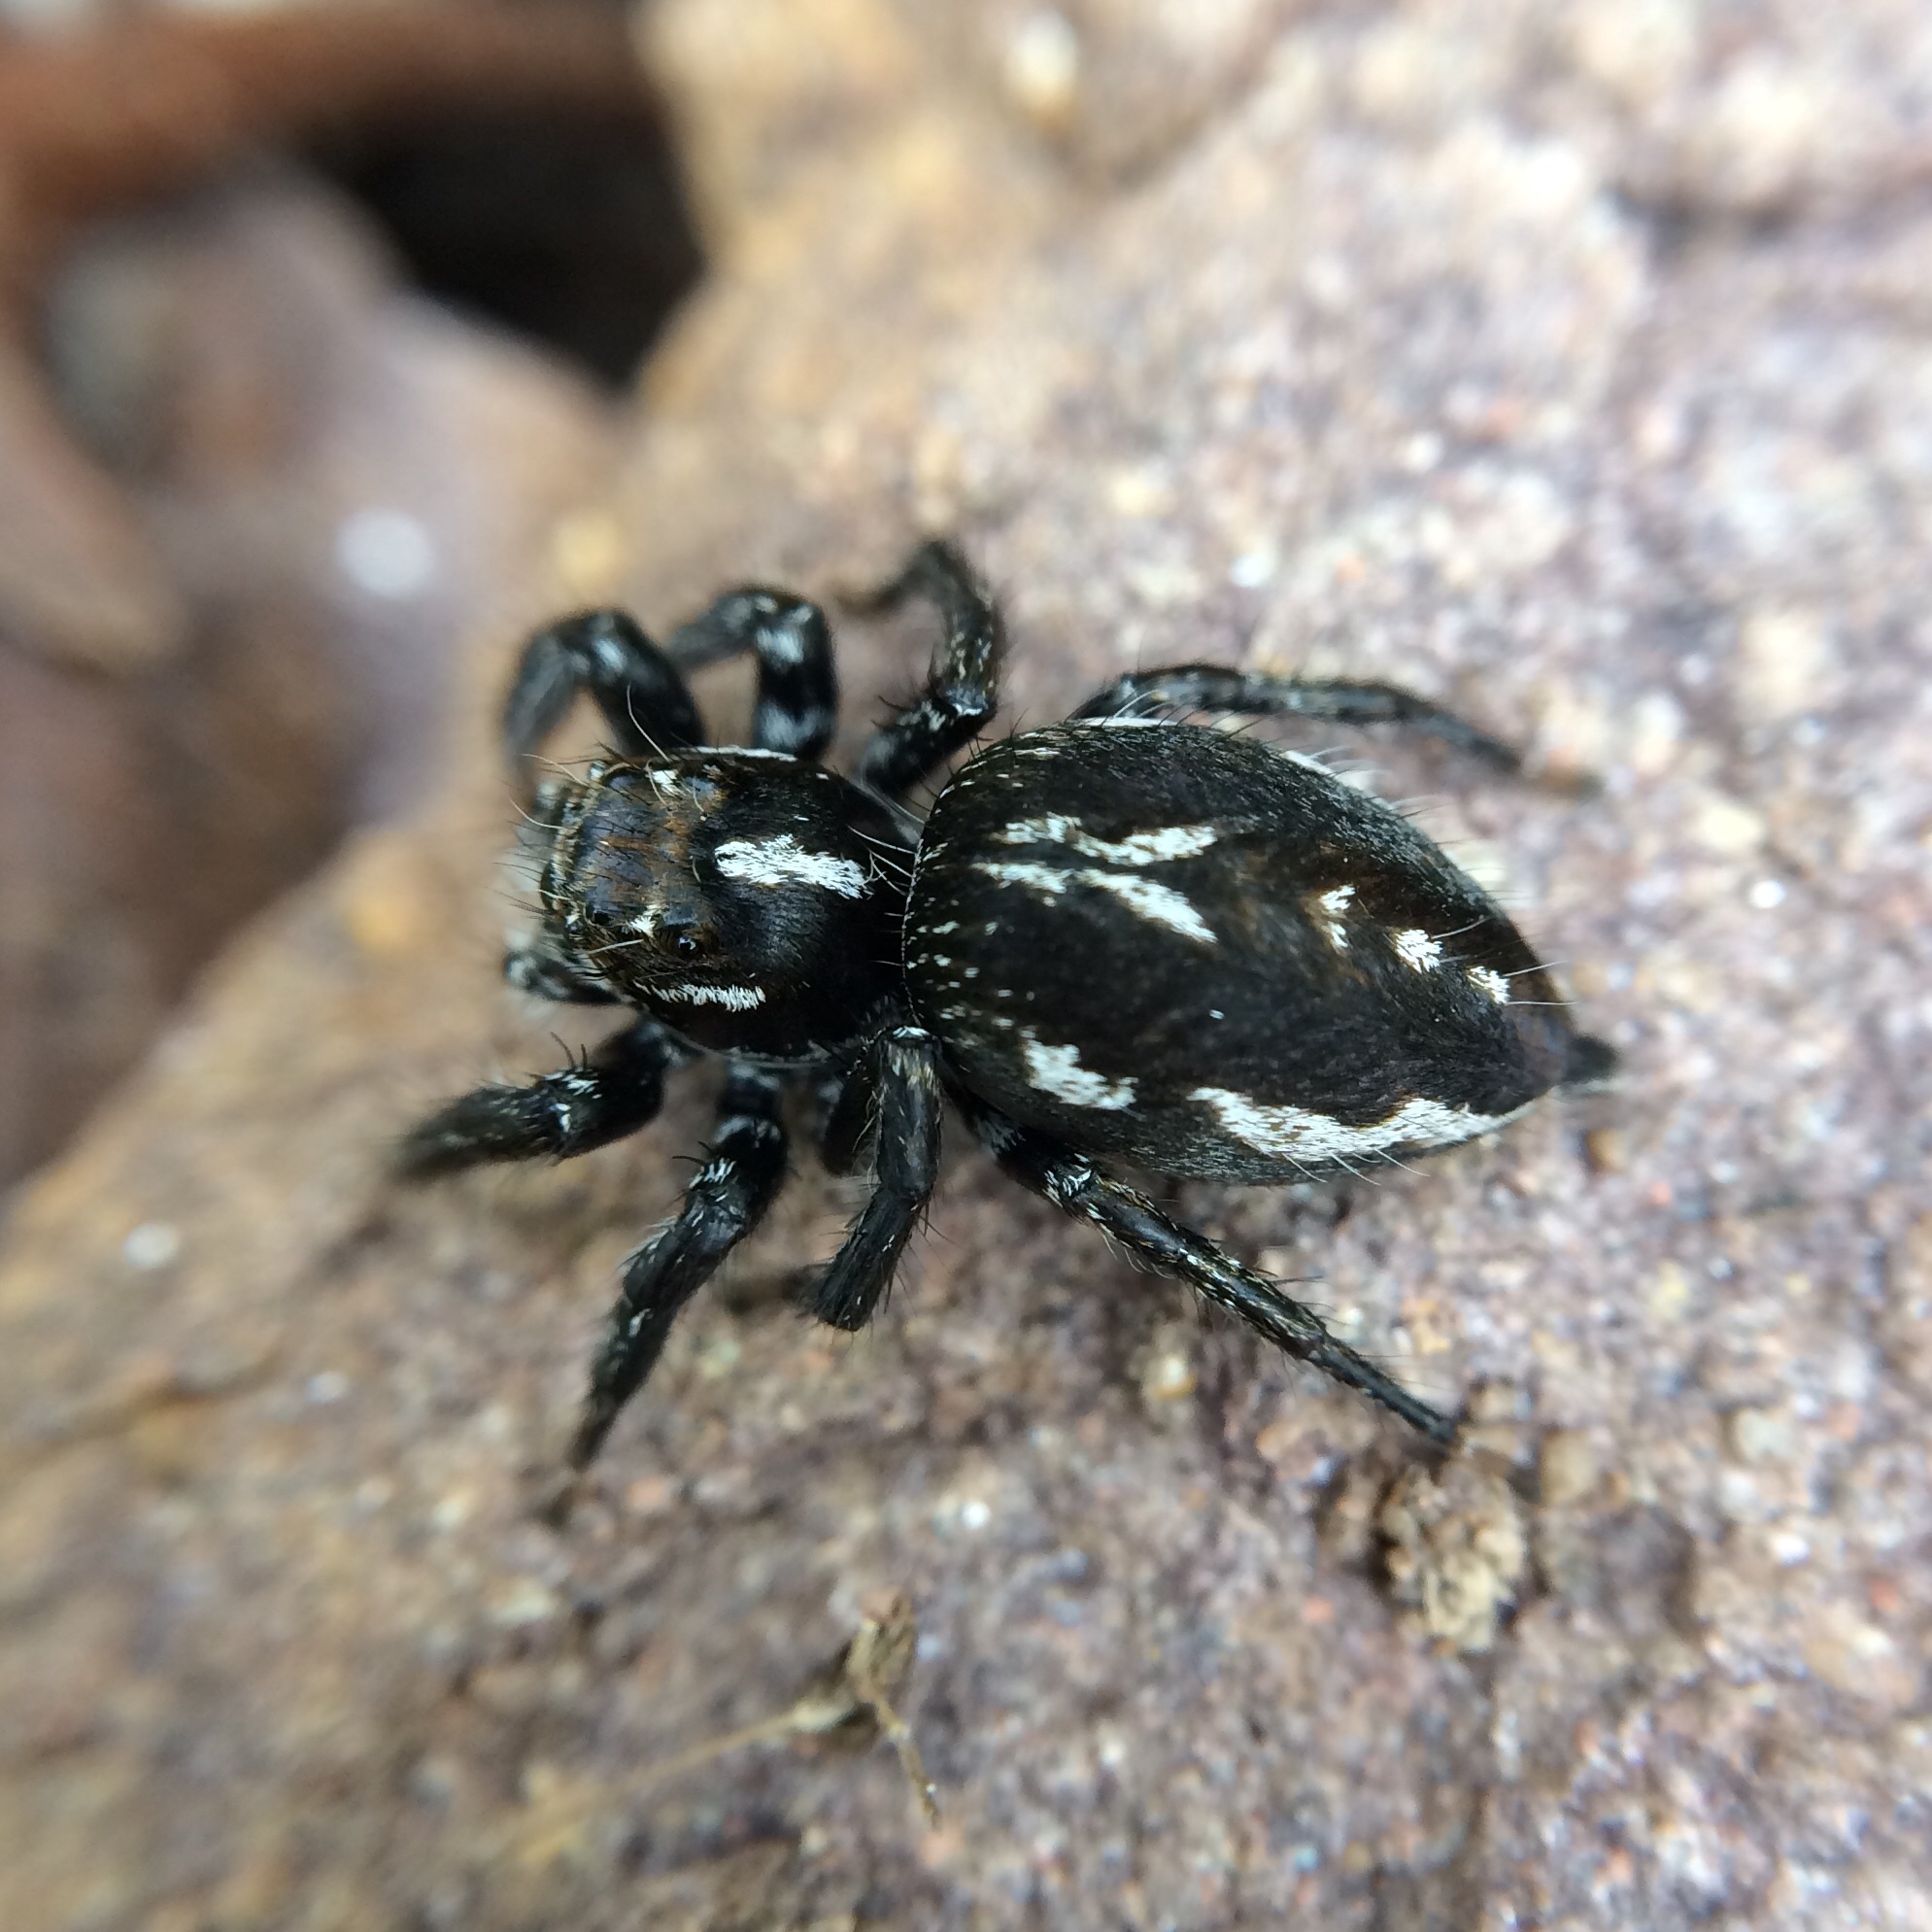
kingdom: Animalia
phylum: Arthropoda
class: Arachnida
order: Araneae
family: Salticidae
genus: Hyllus
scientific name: Hyllus argyrotoxus
